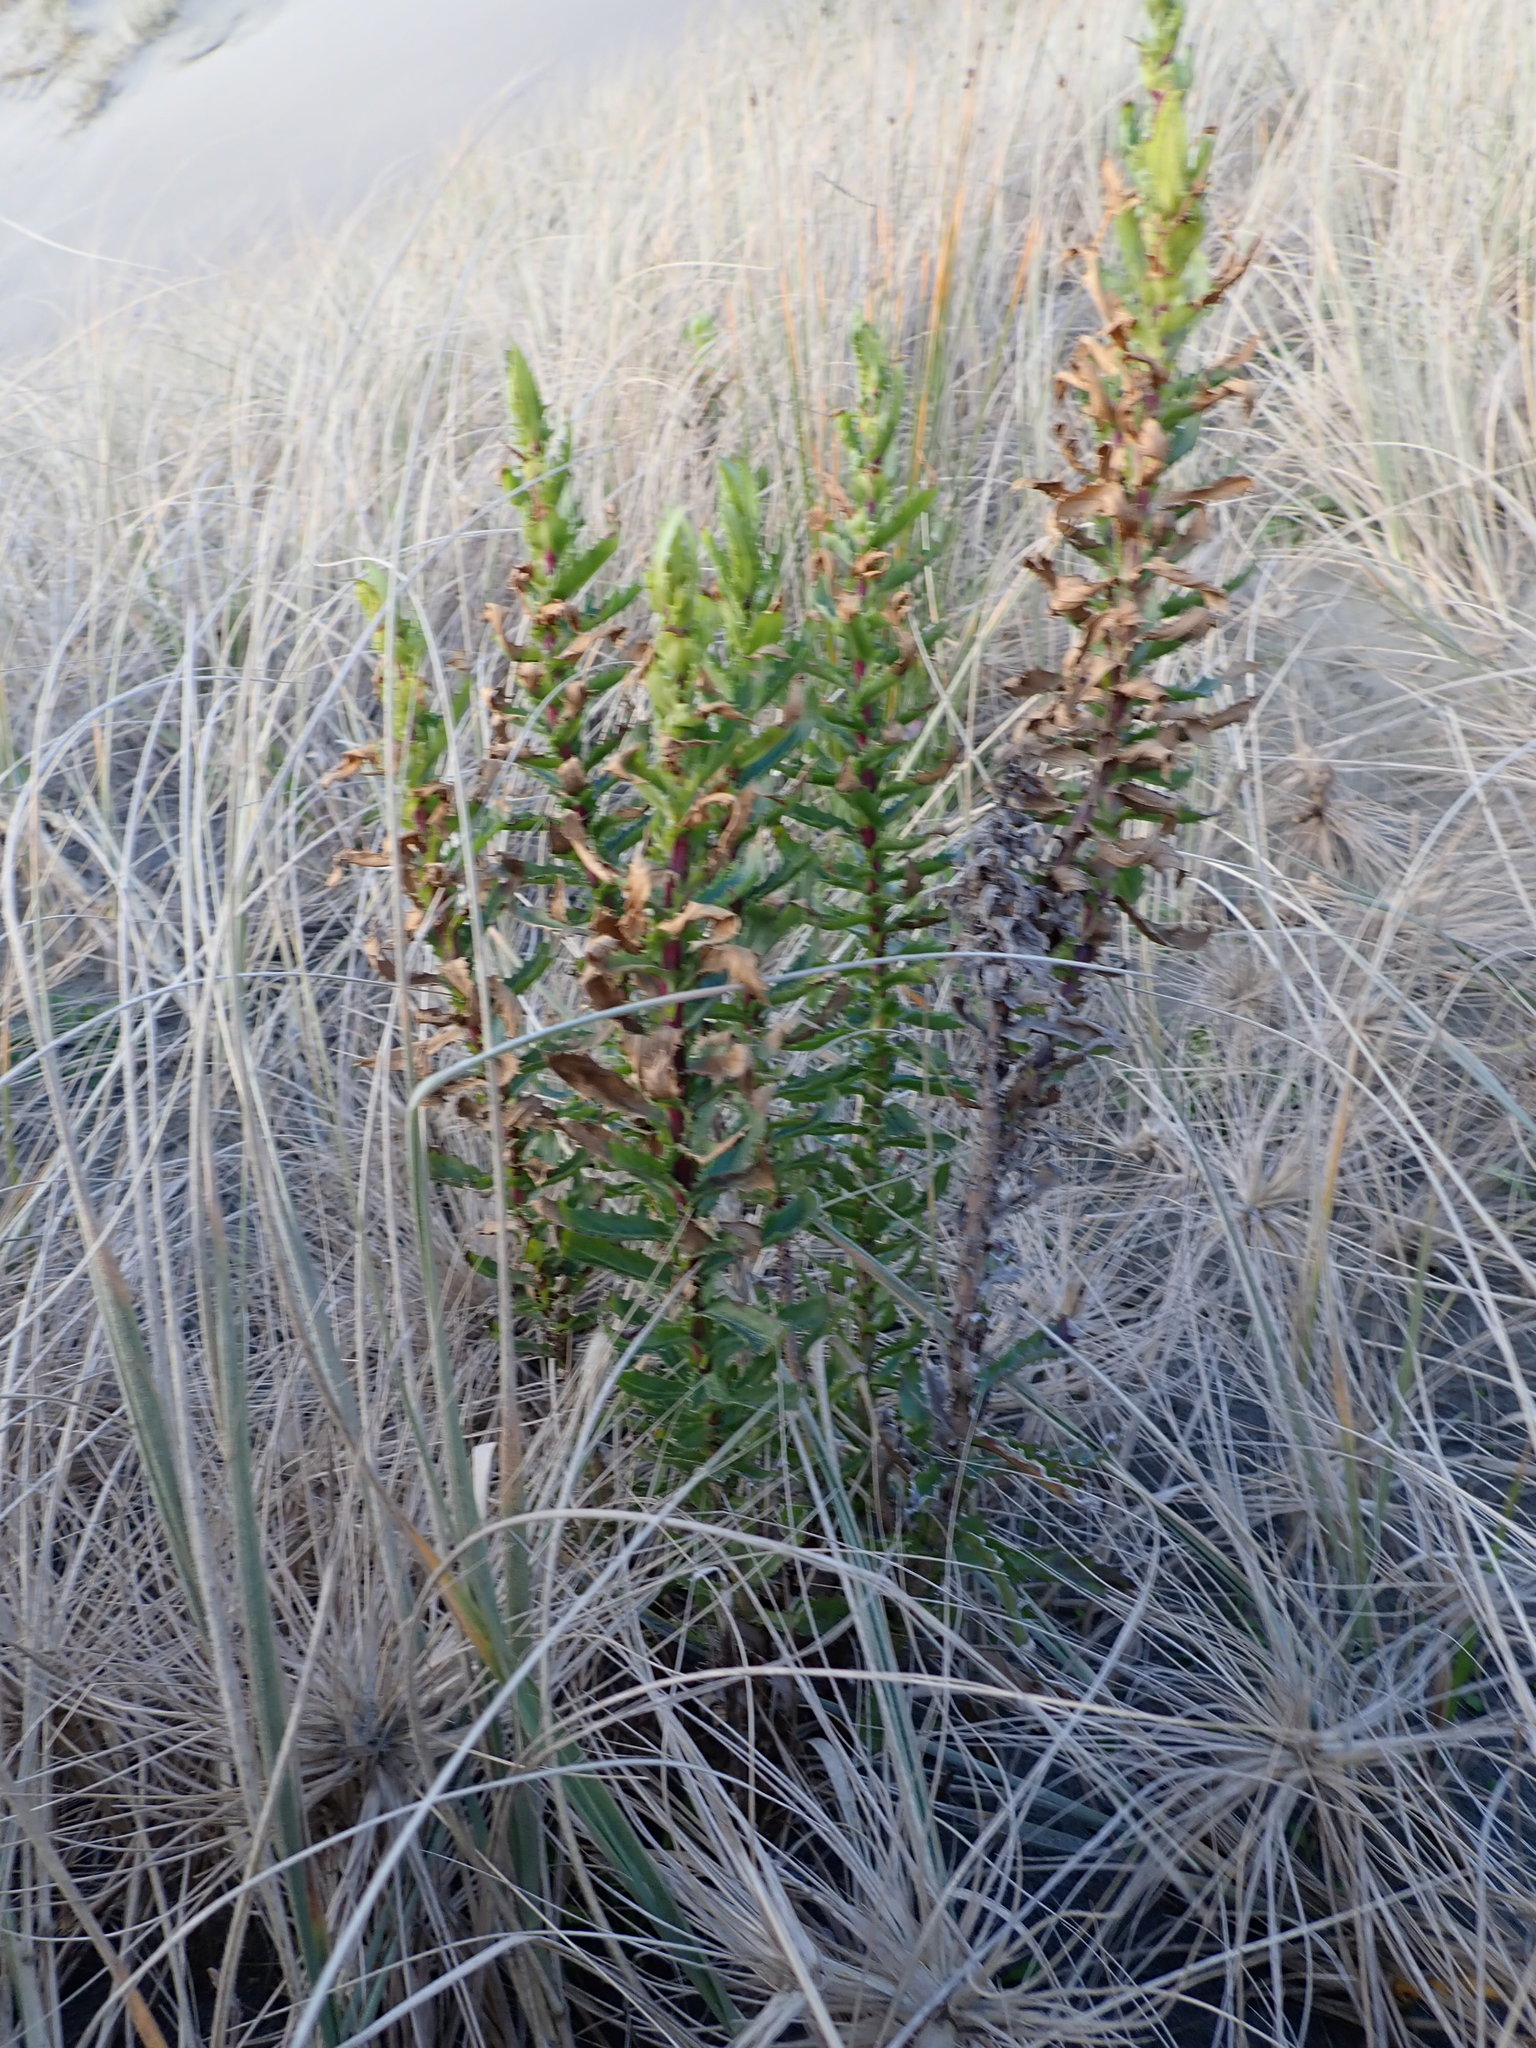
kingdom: Plantae
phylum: Tracheophyta
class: Magnoliopsida
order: Asterales
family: Asteraceae
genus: Senecio
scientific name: Senecio glastifolius
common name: Woad-leaved ragwort
